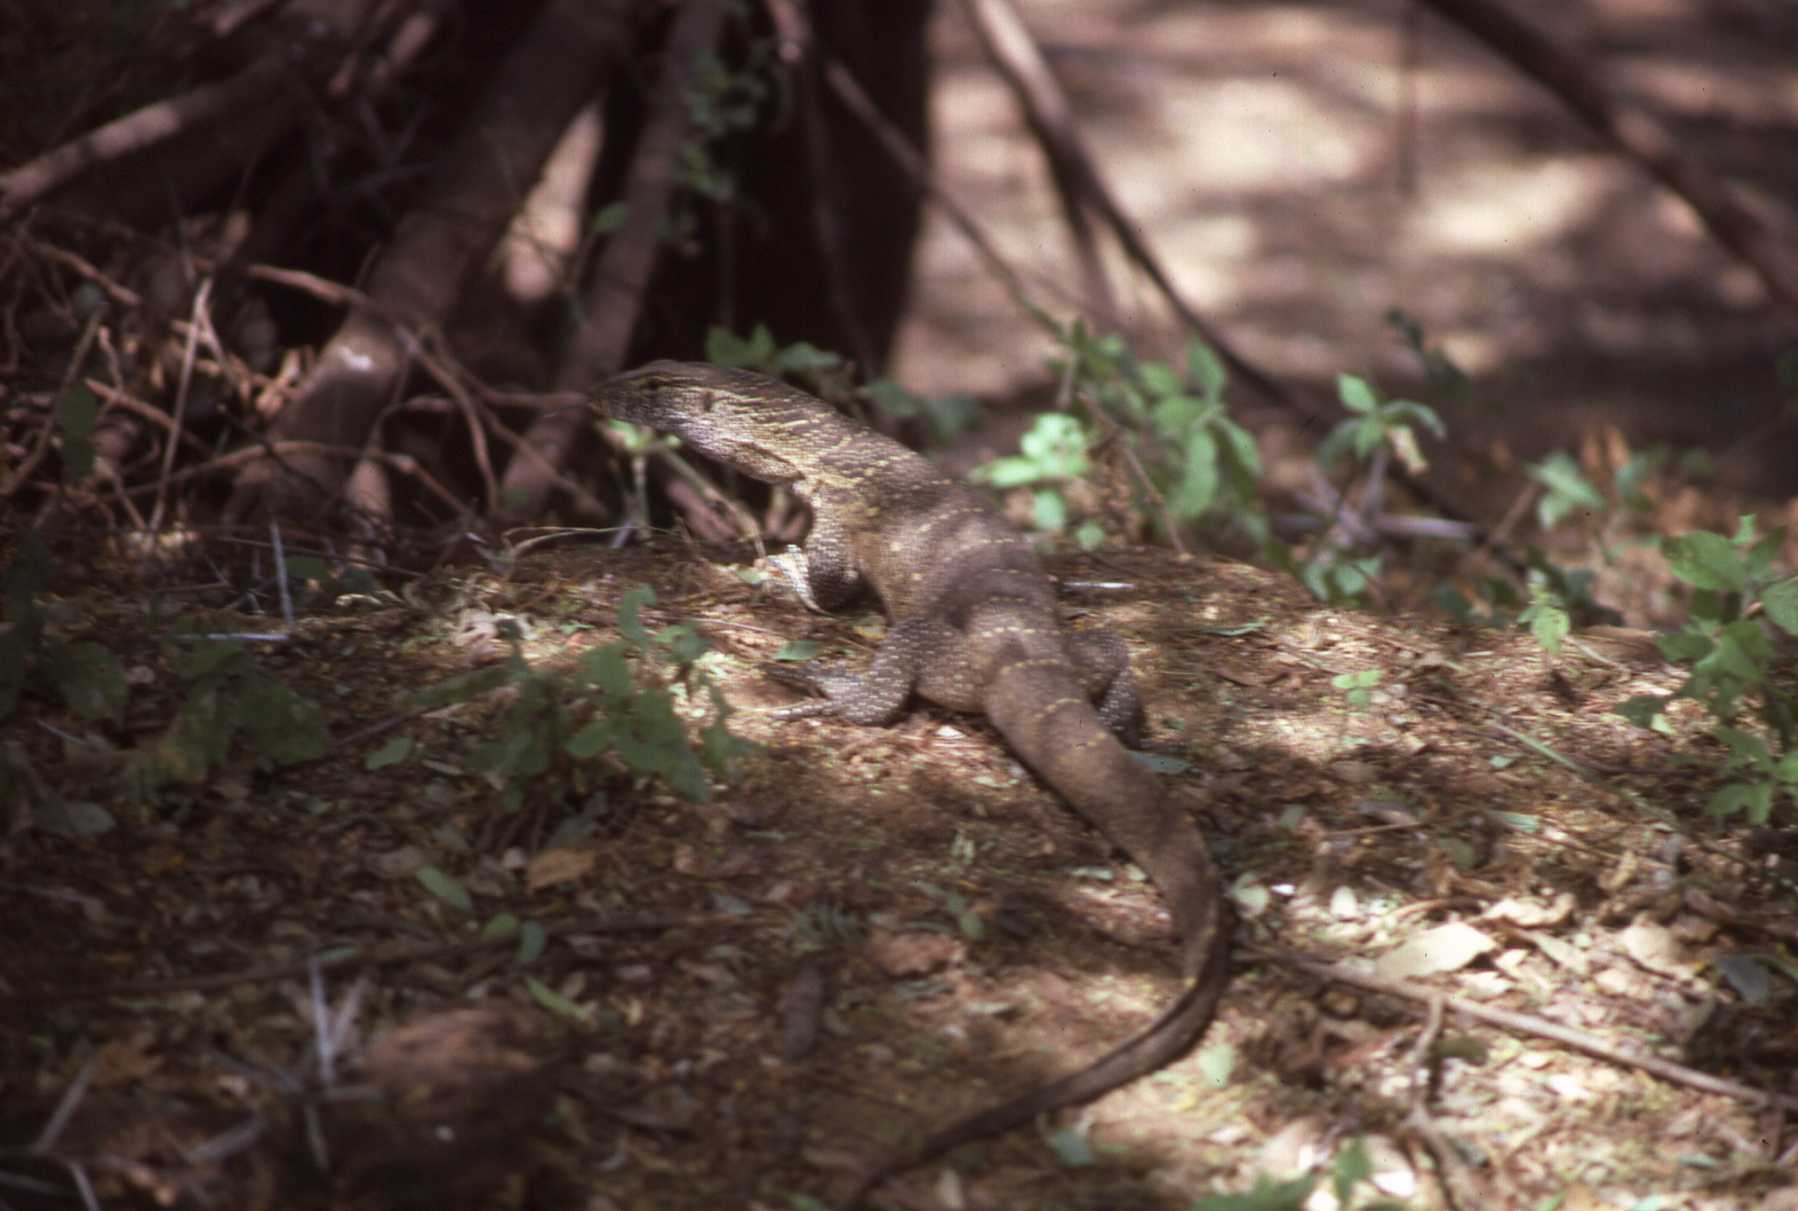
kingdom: Animalia
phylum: Chordata
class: Squamata
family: Varanidae
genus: Varanus
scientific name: Varanus niloticus
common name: Nile monitor
